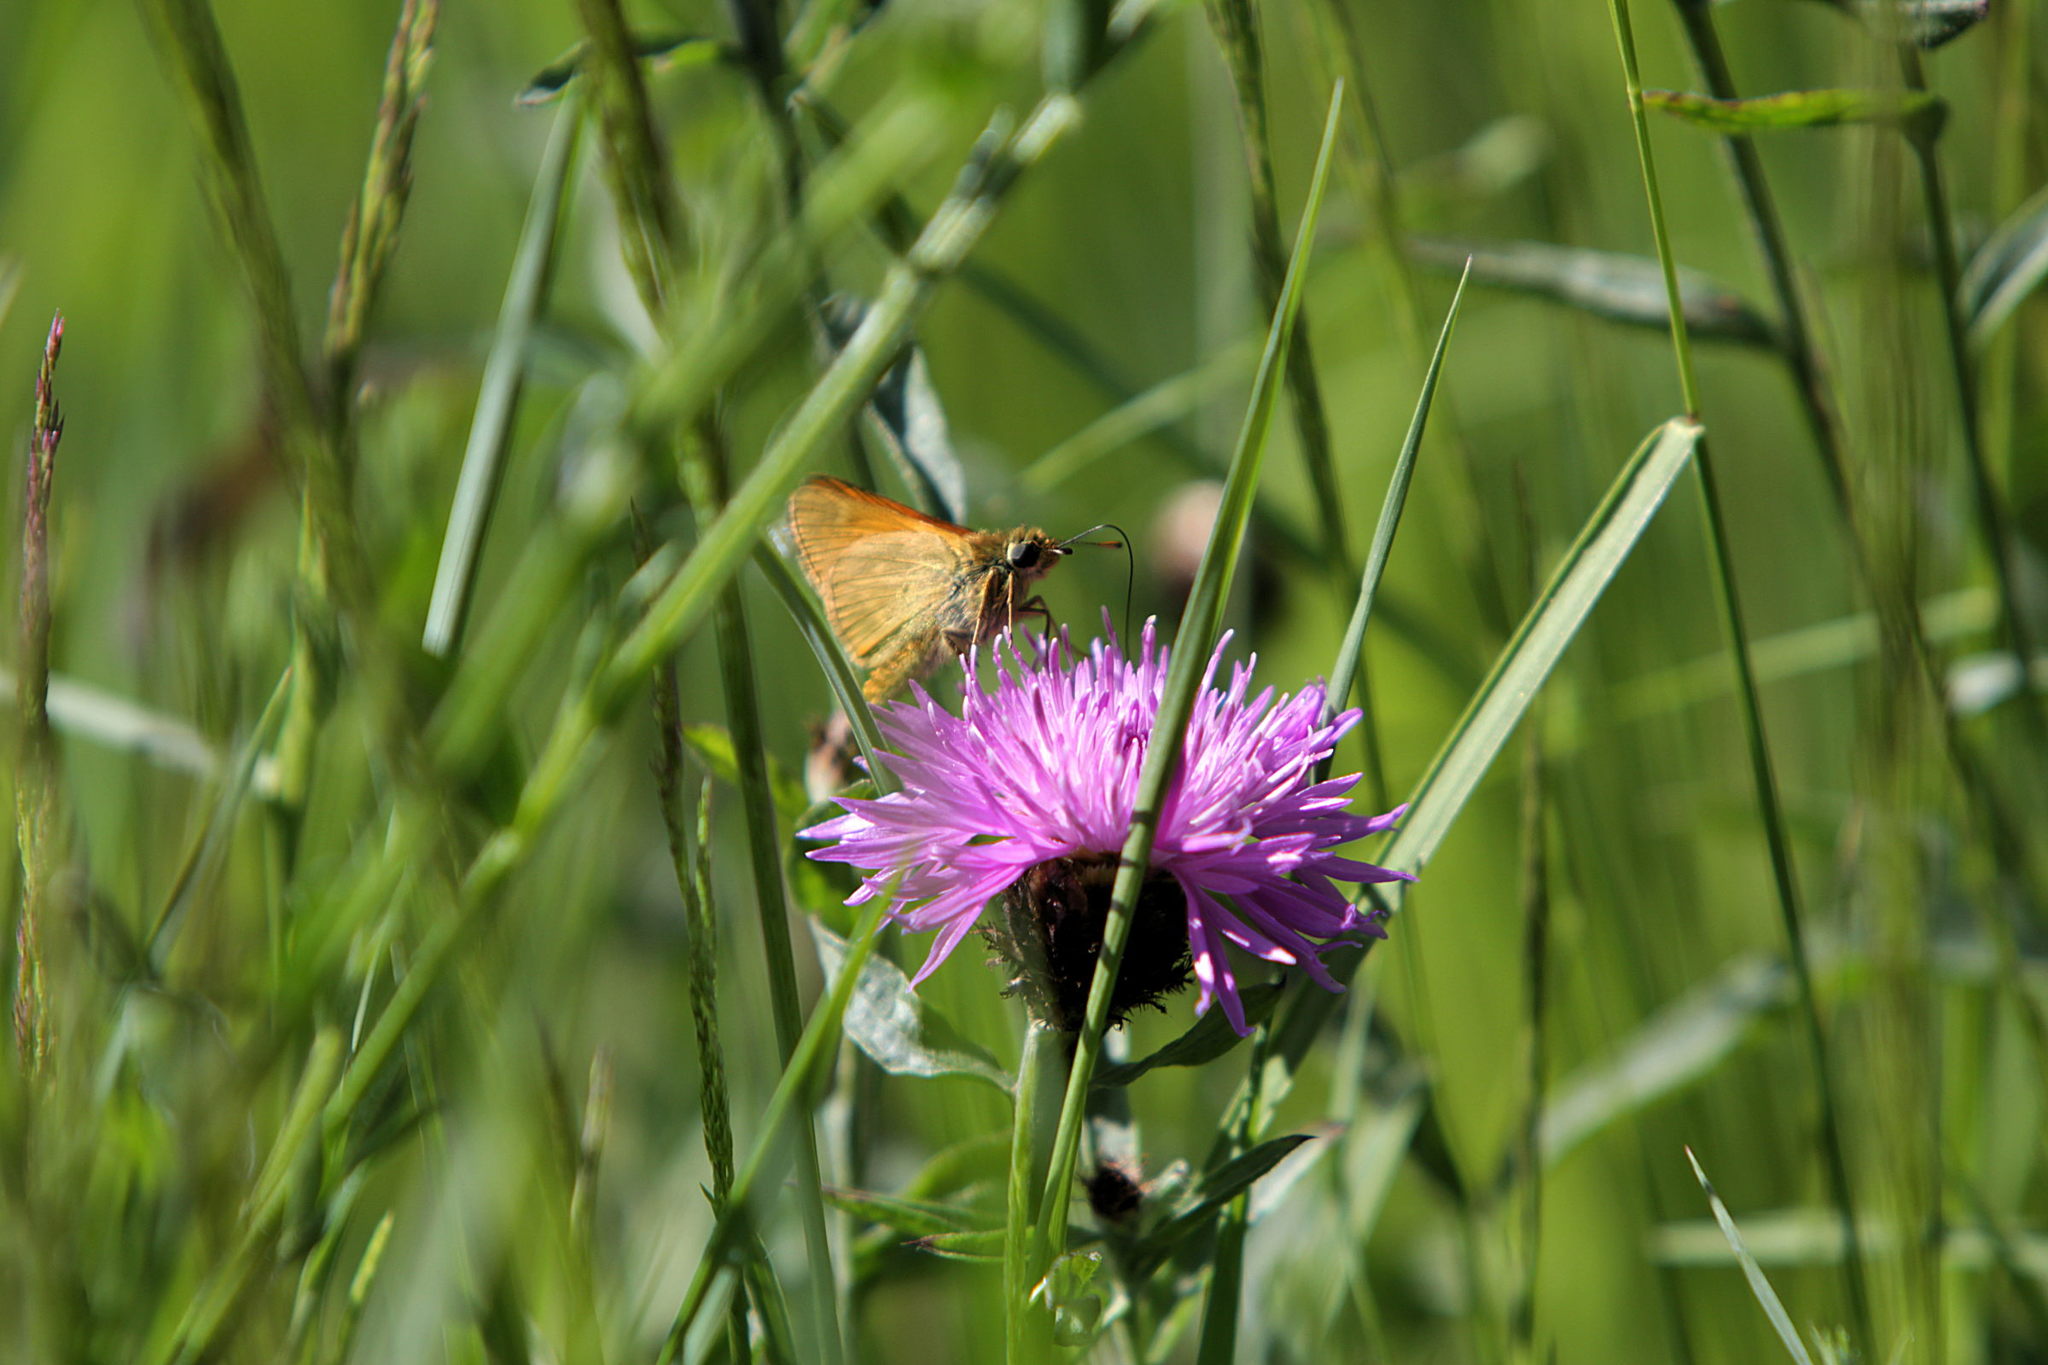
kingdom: Animalia
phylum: Arthropoda
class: Insecta
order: Lepidoptera
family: Hesperiidae
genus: Ochlodes
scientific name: Ochlodes venata
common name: Large skipper
